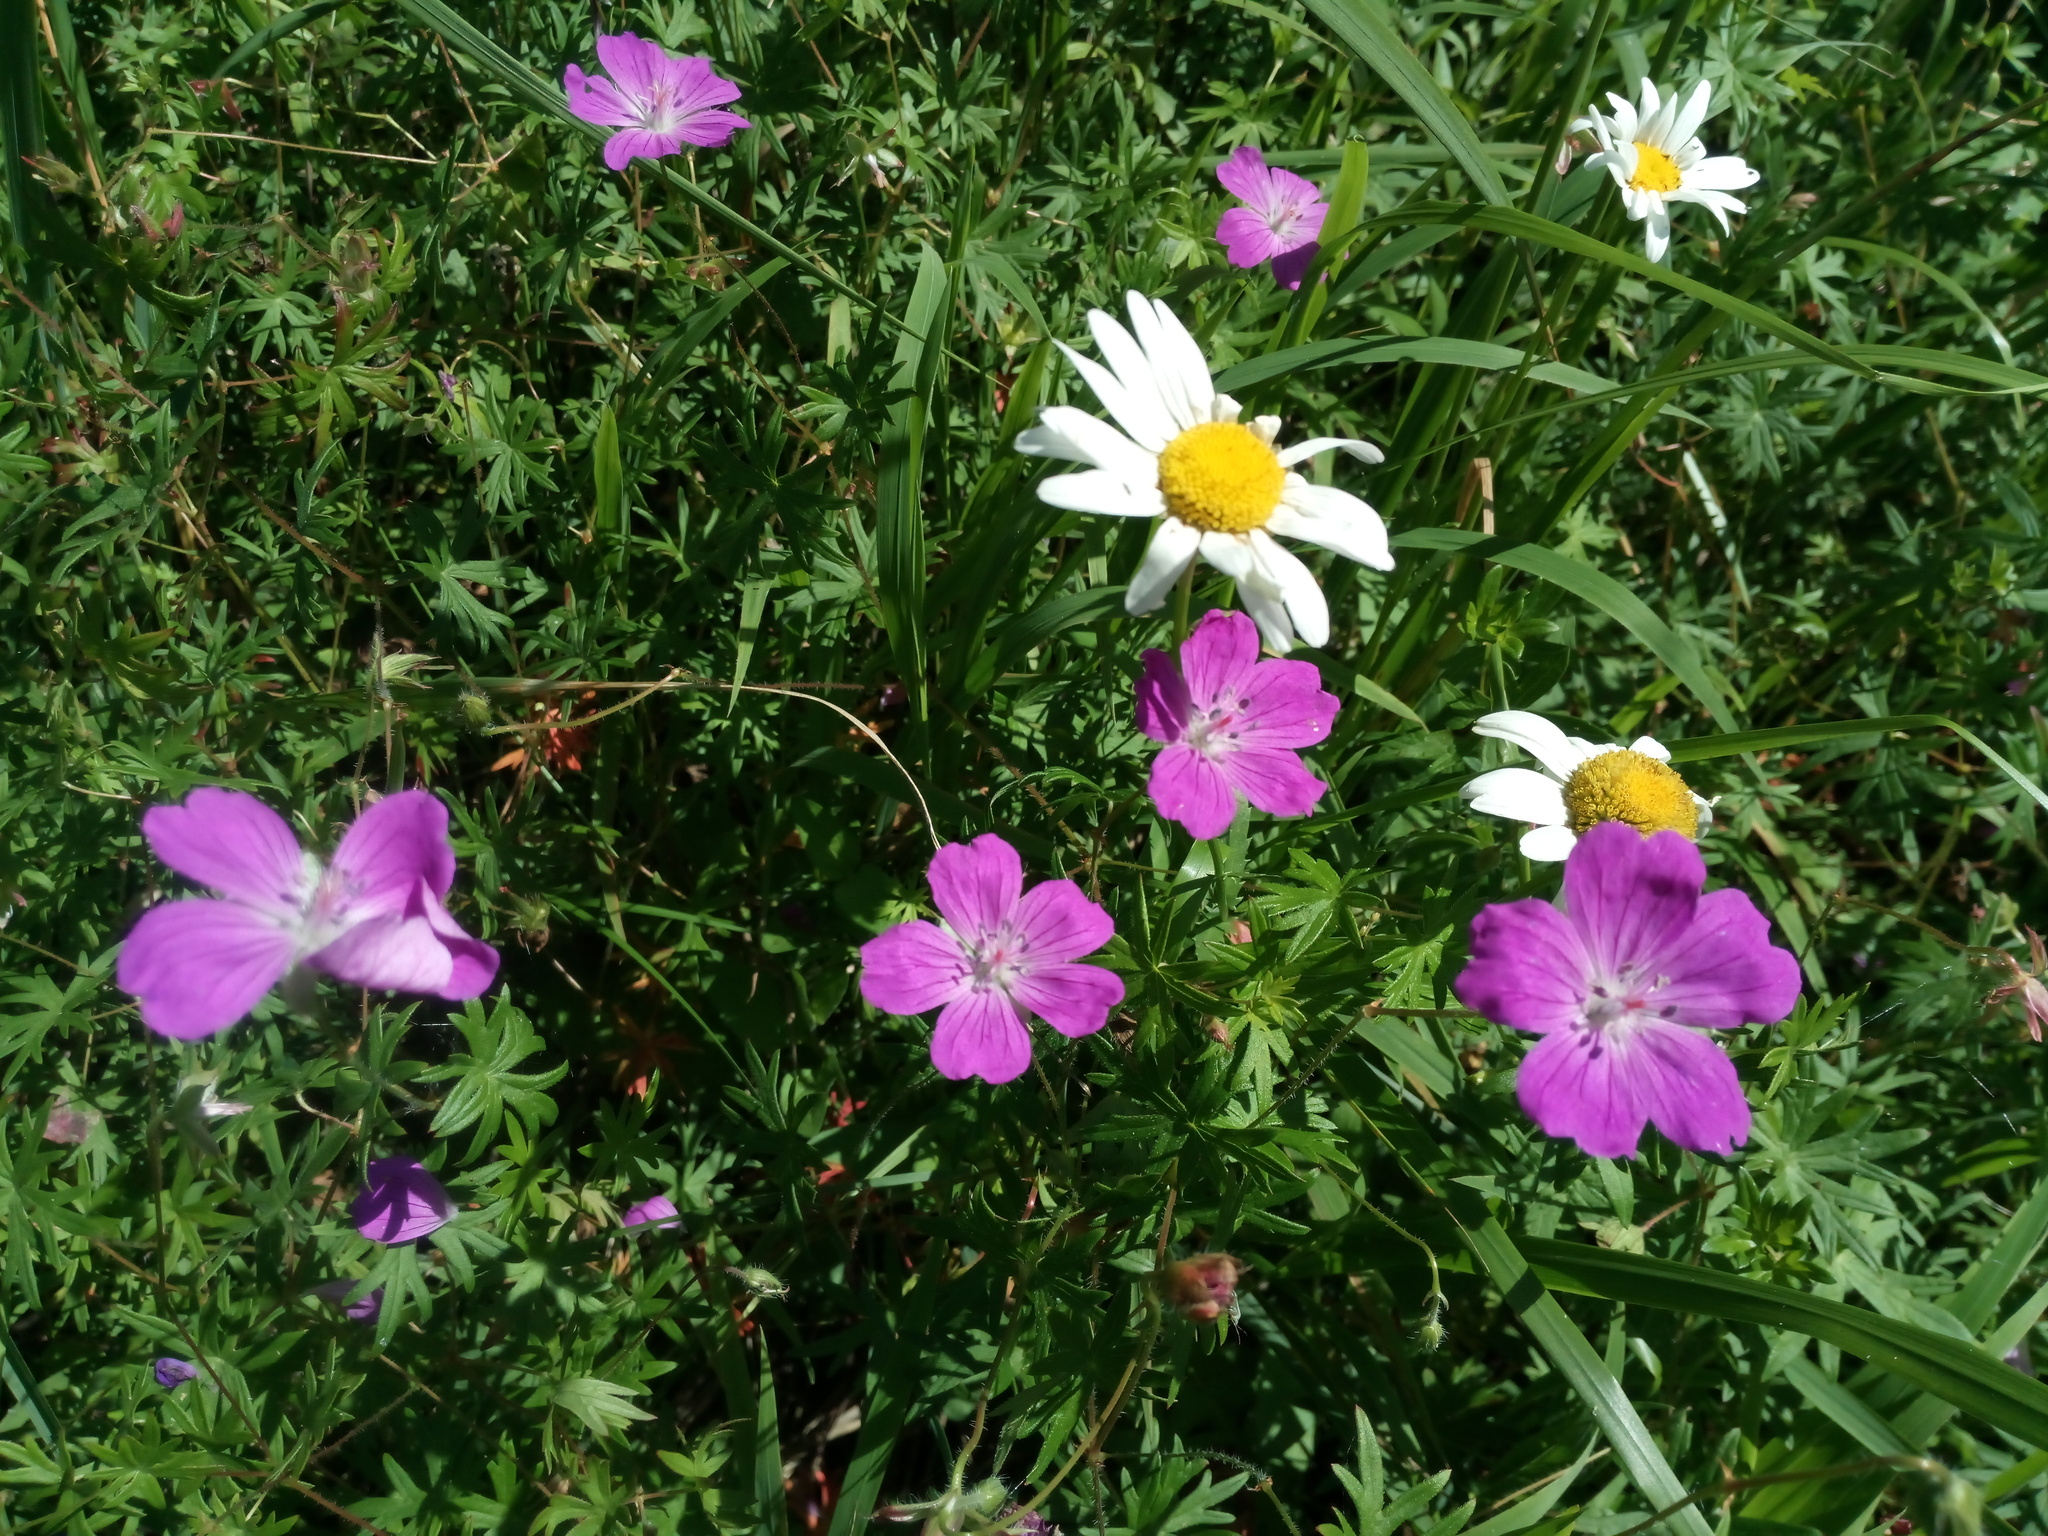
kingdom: Plantae
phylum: Tracheophyta
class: Magnoliopsida
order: Geraniales
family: Geraniaceae
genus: Geranium
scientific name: Geranium sanguineum
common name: Bloody crane's-bill
